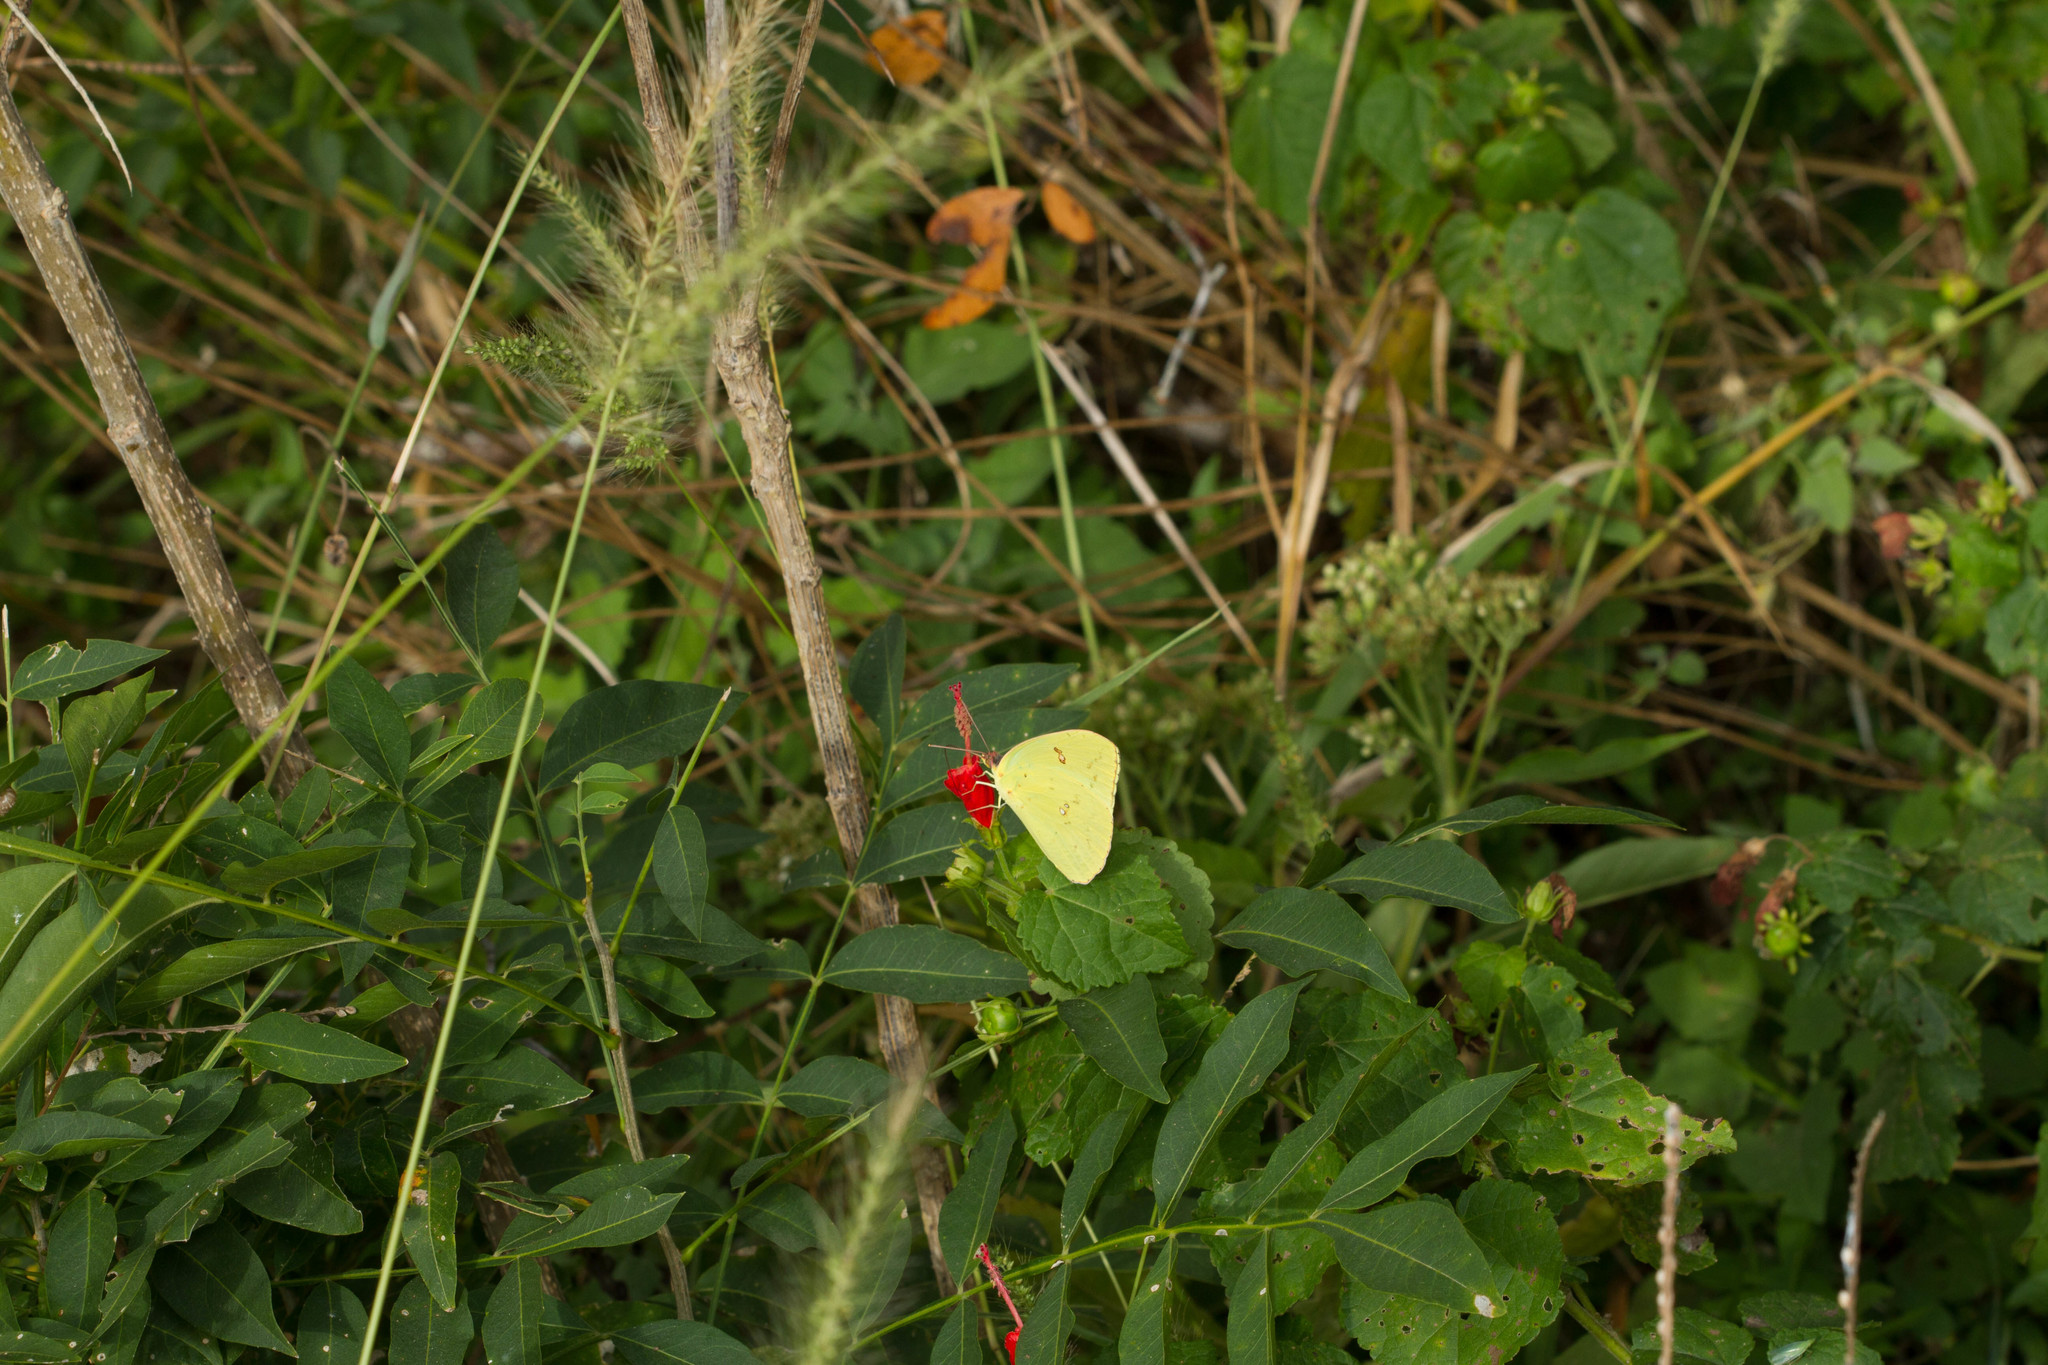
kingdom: Animalia
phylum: Arthropoda
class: Insecta
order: Lepidoptera
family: Pieridae
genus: Phoebis
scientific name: Phoebis sennae
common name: Cloudless sulphur
